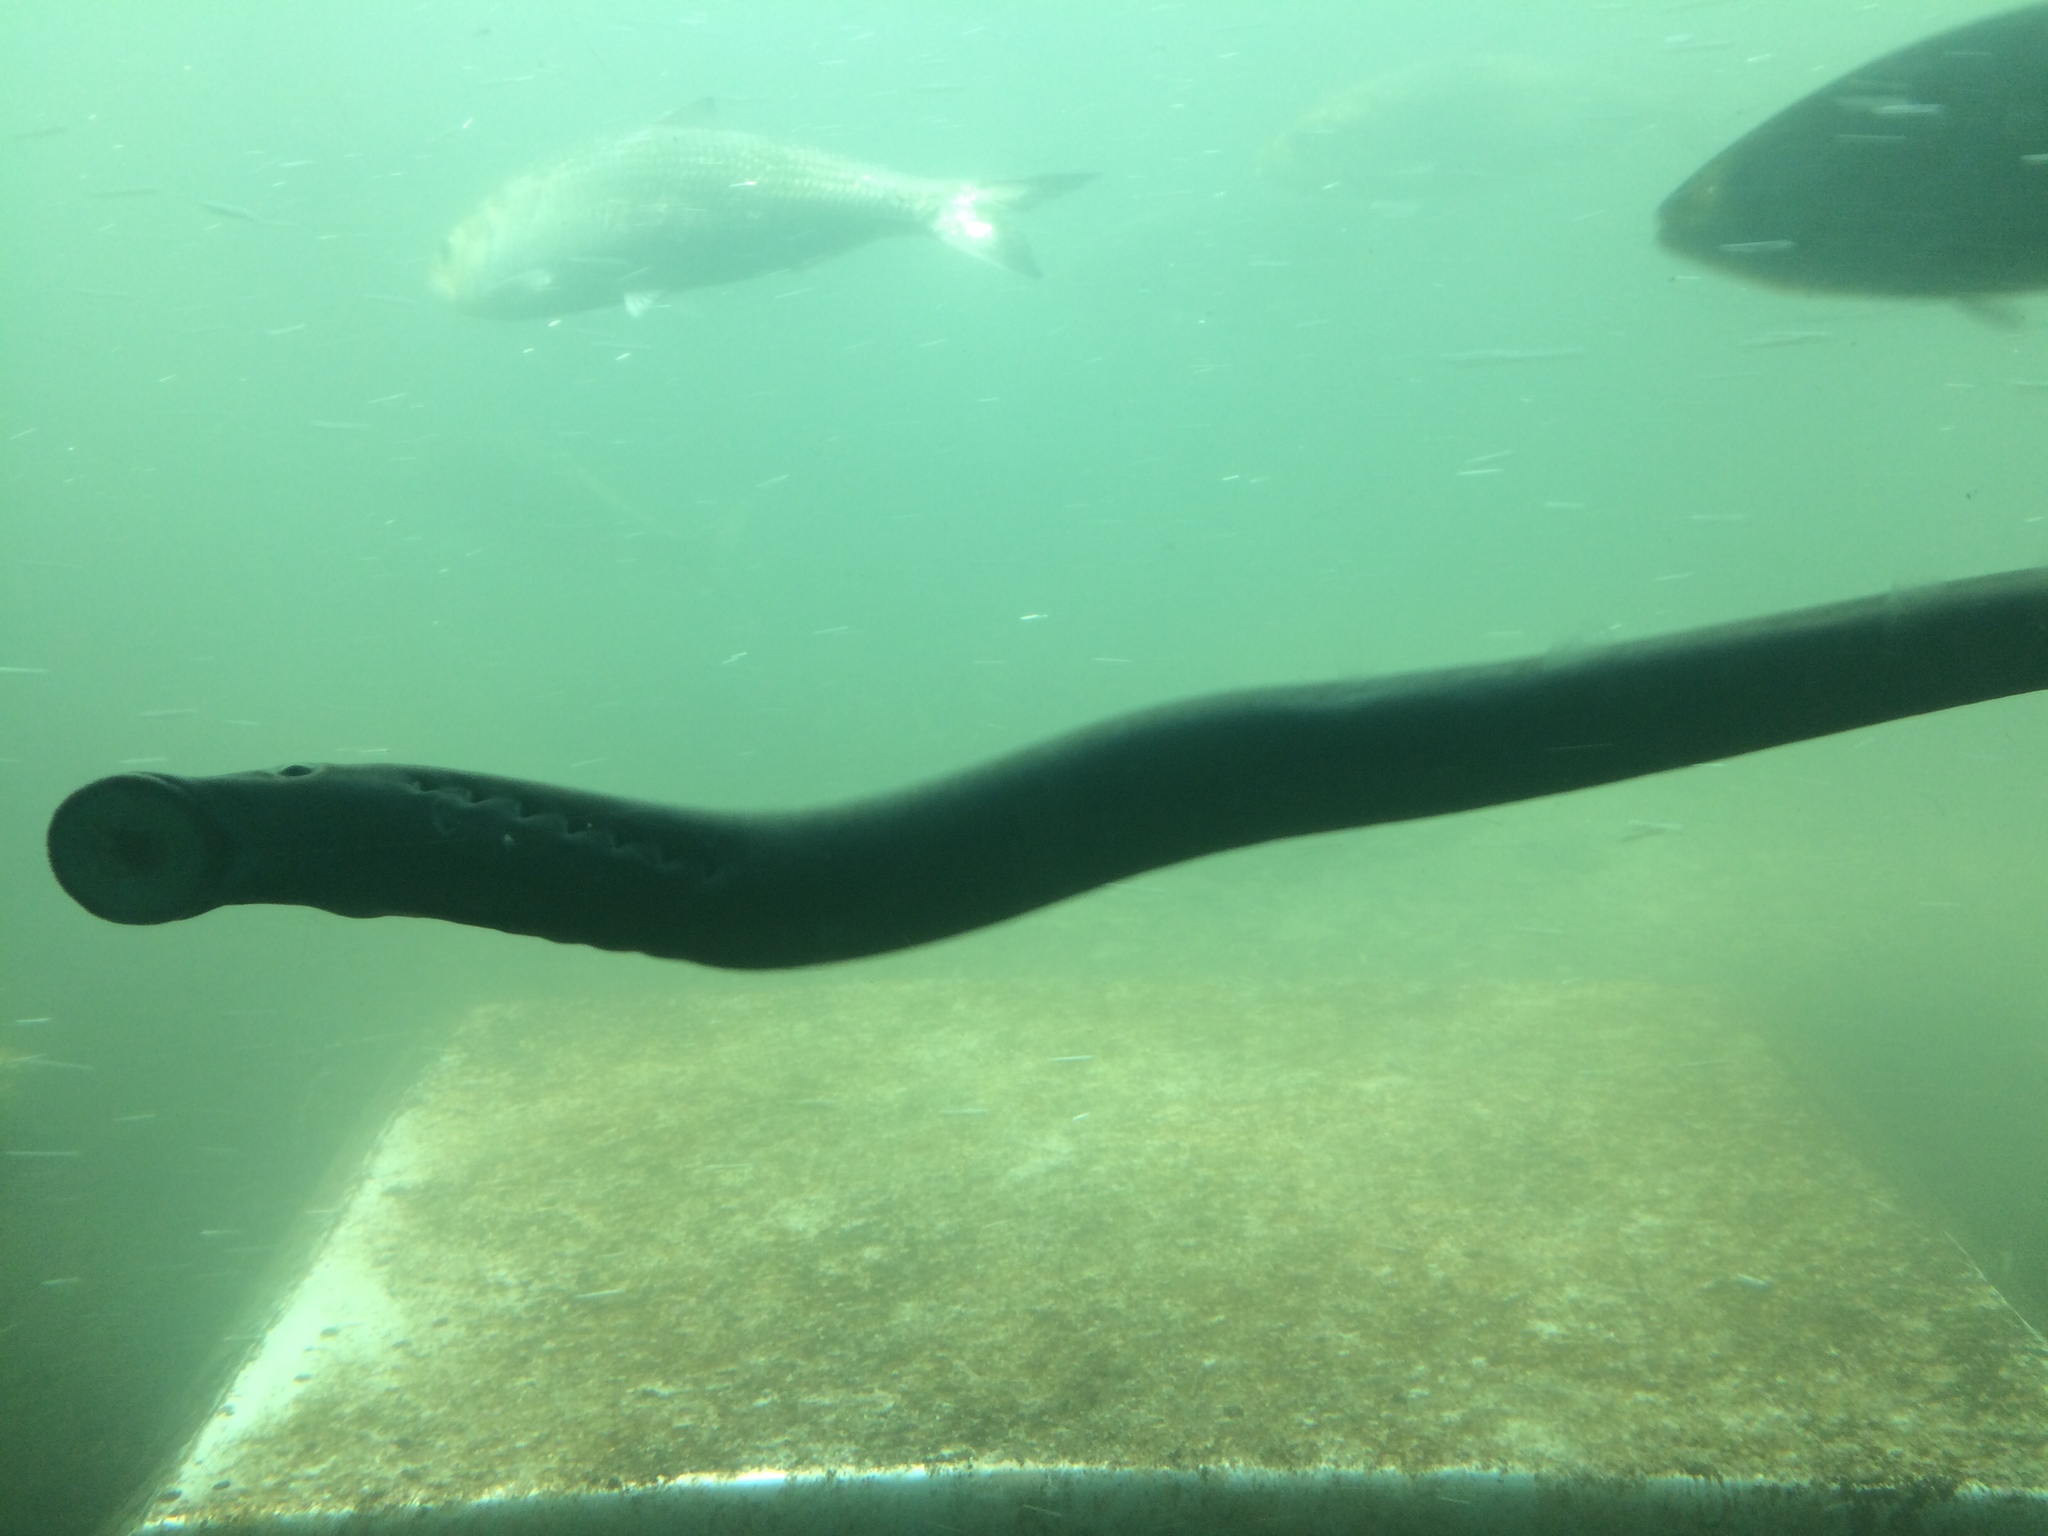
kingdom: Animalia
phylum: Chordata
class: Petromyzonti
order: Petromyzontiformes
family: Petromyzontidae
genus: Entosphenus
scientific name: Entosphenus tridentatus
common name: Pacific lamprey
